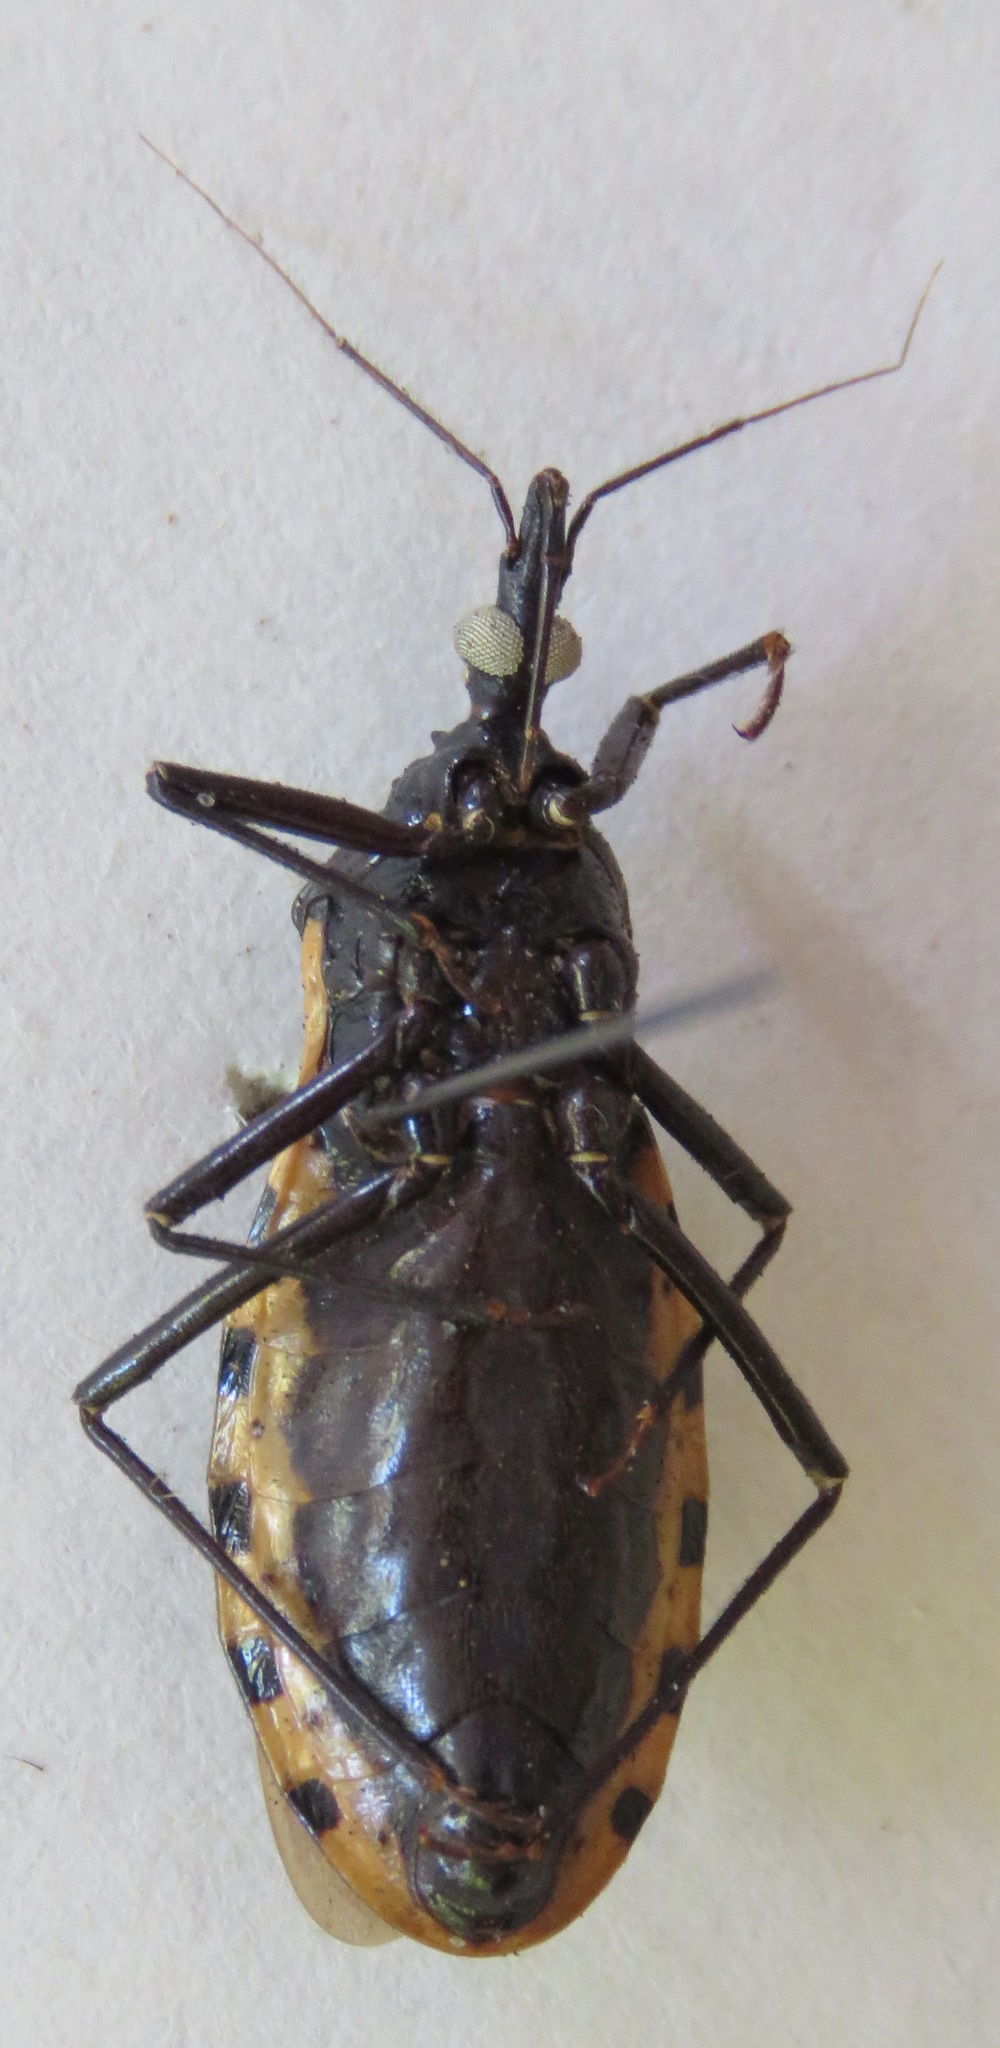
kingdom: Animalia
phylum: Arthropoda
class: Insecta
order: Hemiptera
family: Reduviidae
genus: Meccus
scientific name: Meccus dimidiatus
